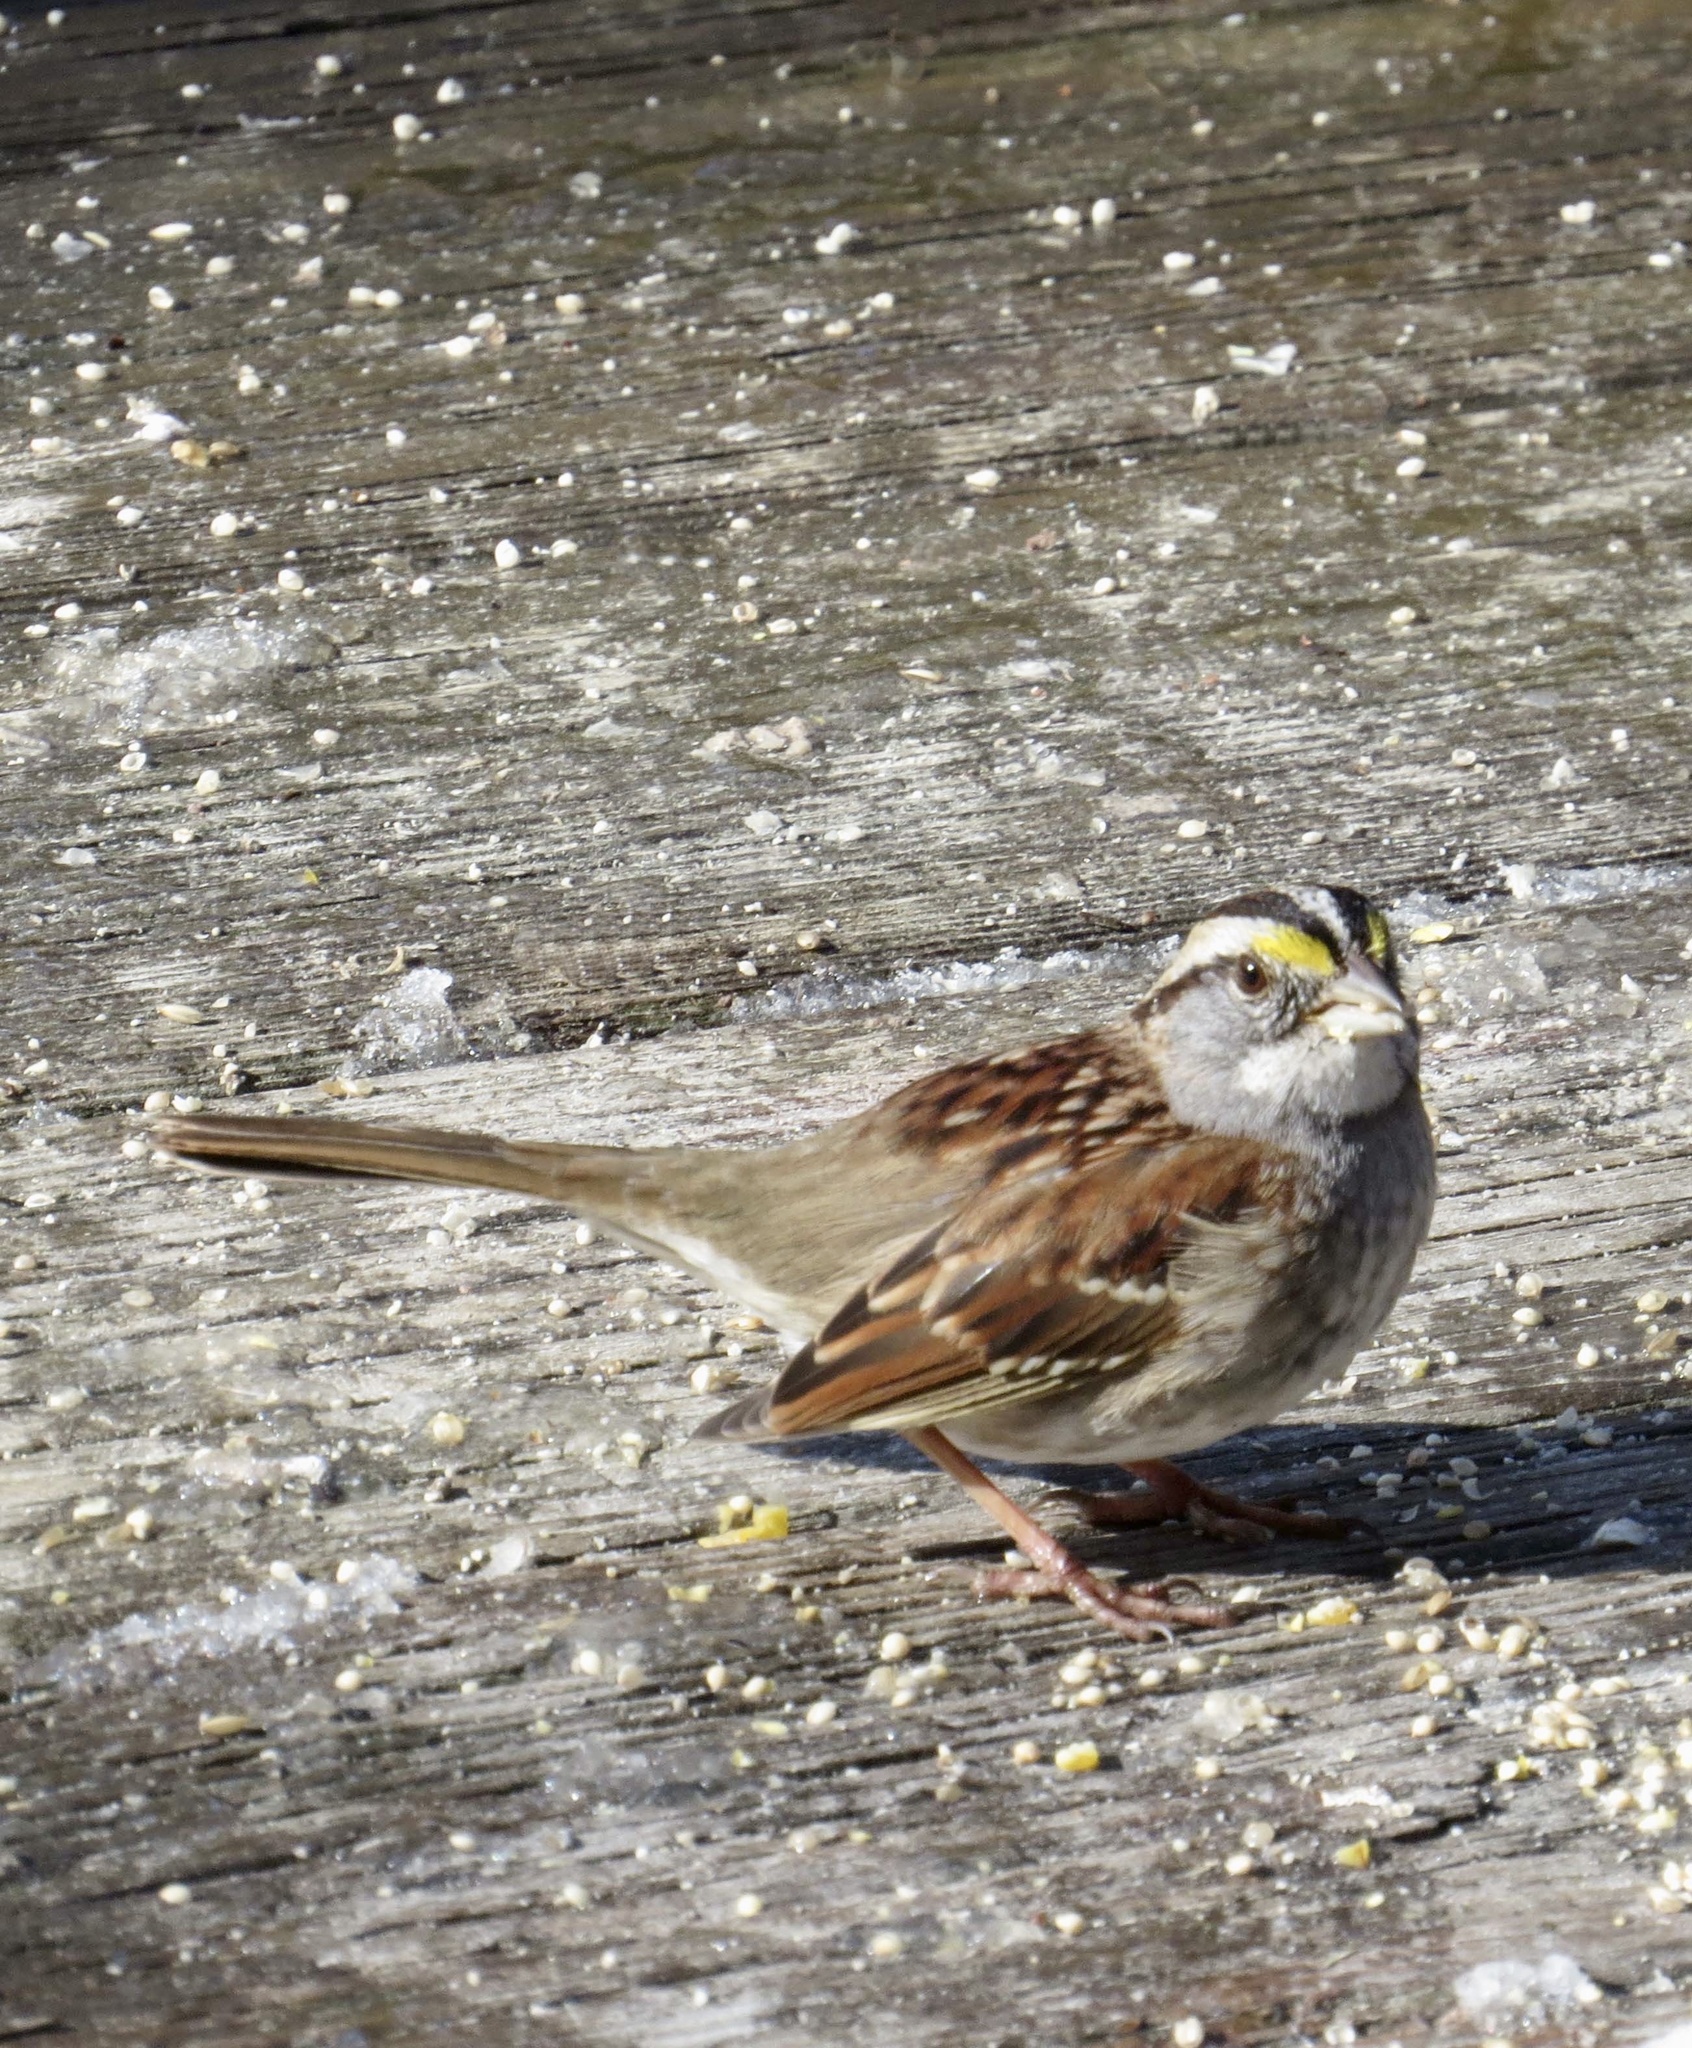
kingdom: Animalia
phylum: Chordata
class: Aves
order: Passeriformes
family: Passerellidae
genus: Zonotrichia
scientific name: Zonotrichia albicollis
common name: White-throated sparrow
